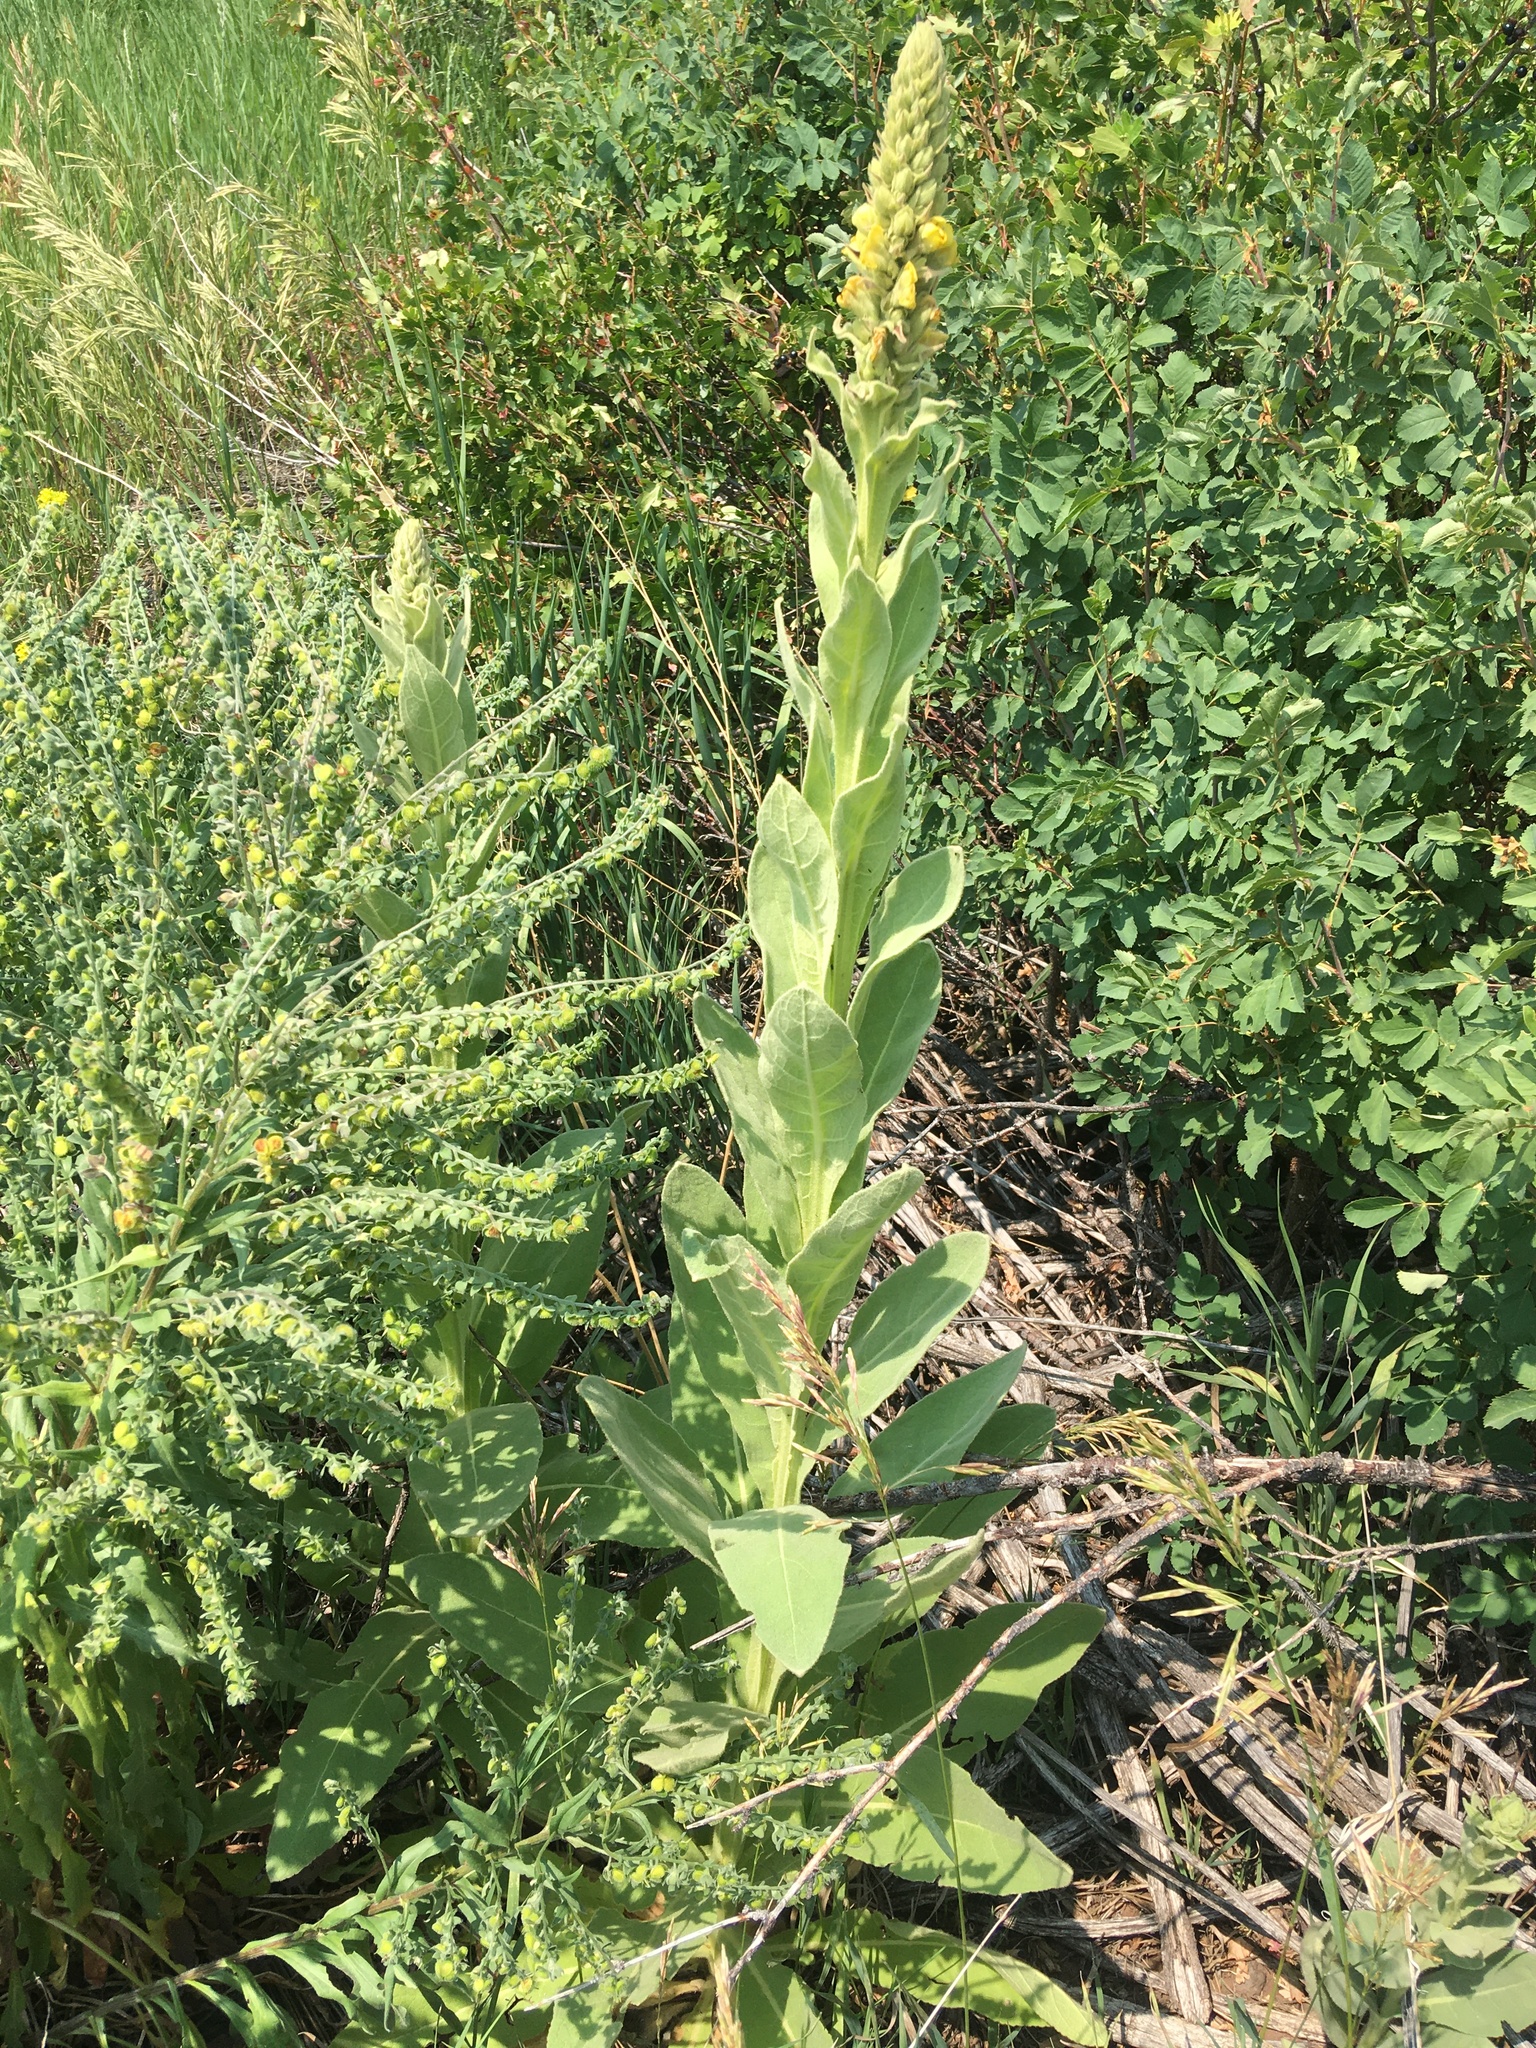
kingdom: Plantae
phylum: Tracheophyta
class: Magnoliopsida
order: Lamiales
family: Scrophulariaceae
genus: Verbascum
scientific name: Verbascum thapsus
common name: Common mullein
